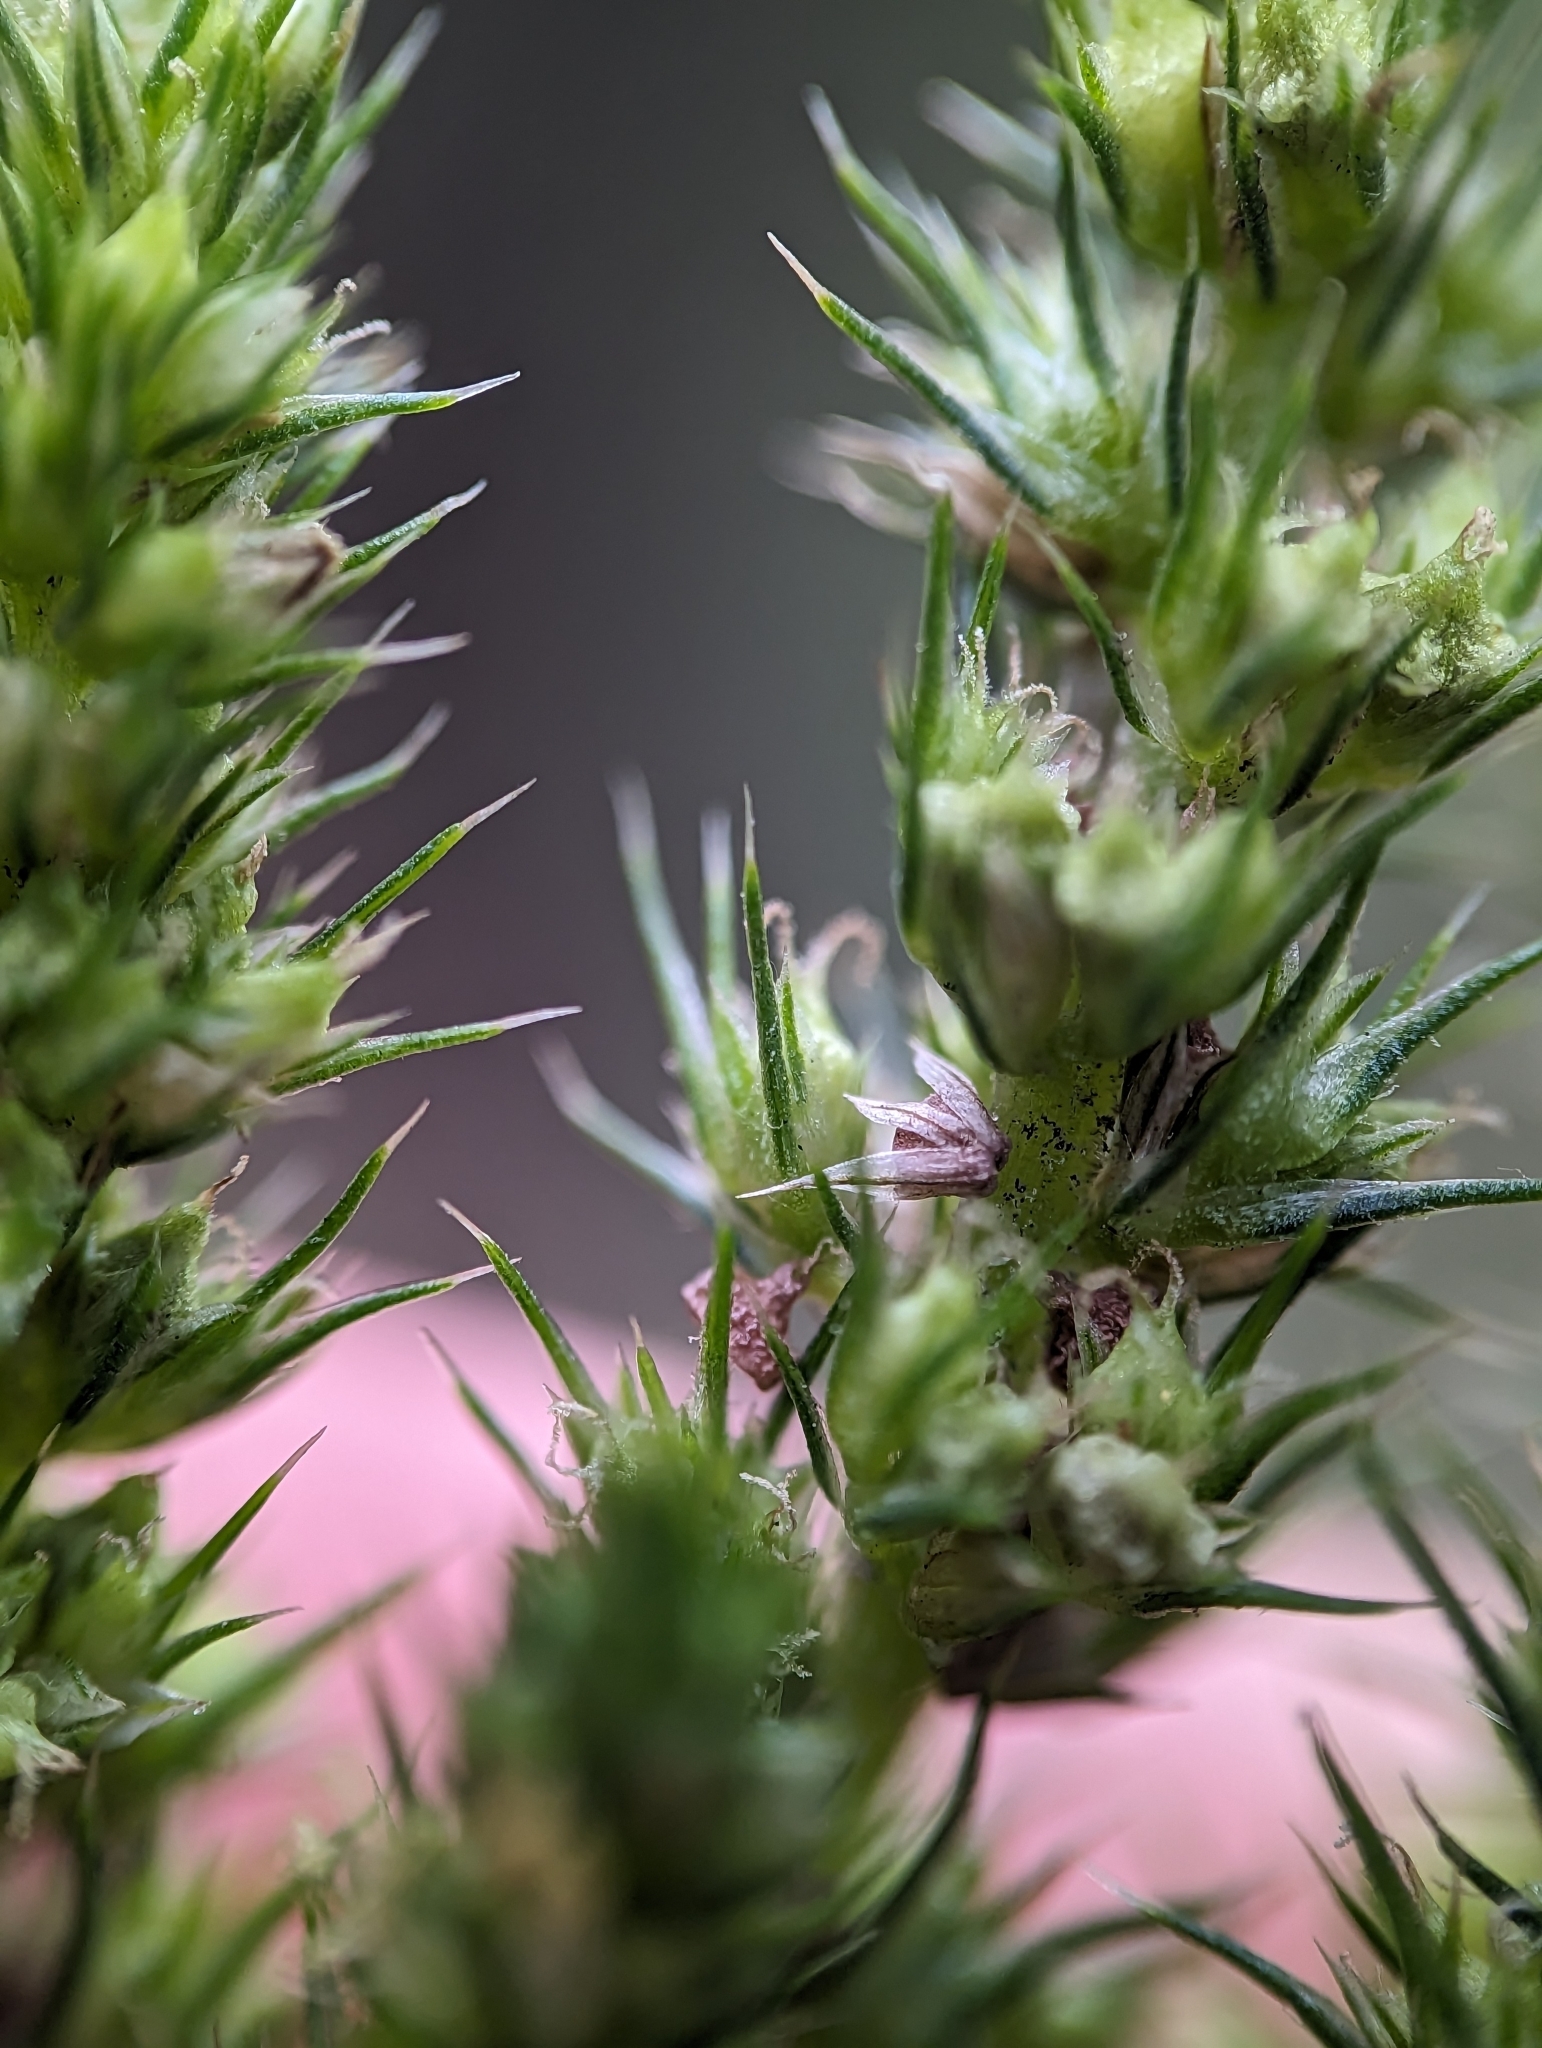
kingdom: Plantae
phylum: Tracheophyta
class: Magnoliopsida
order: Caryophyllales
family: Amaranthaceae
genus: Amaranthus
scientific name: Amaranthus powellii
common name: Powell's amaranth
